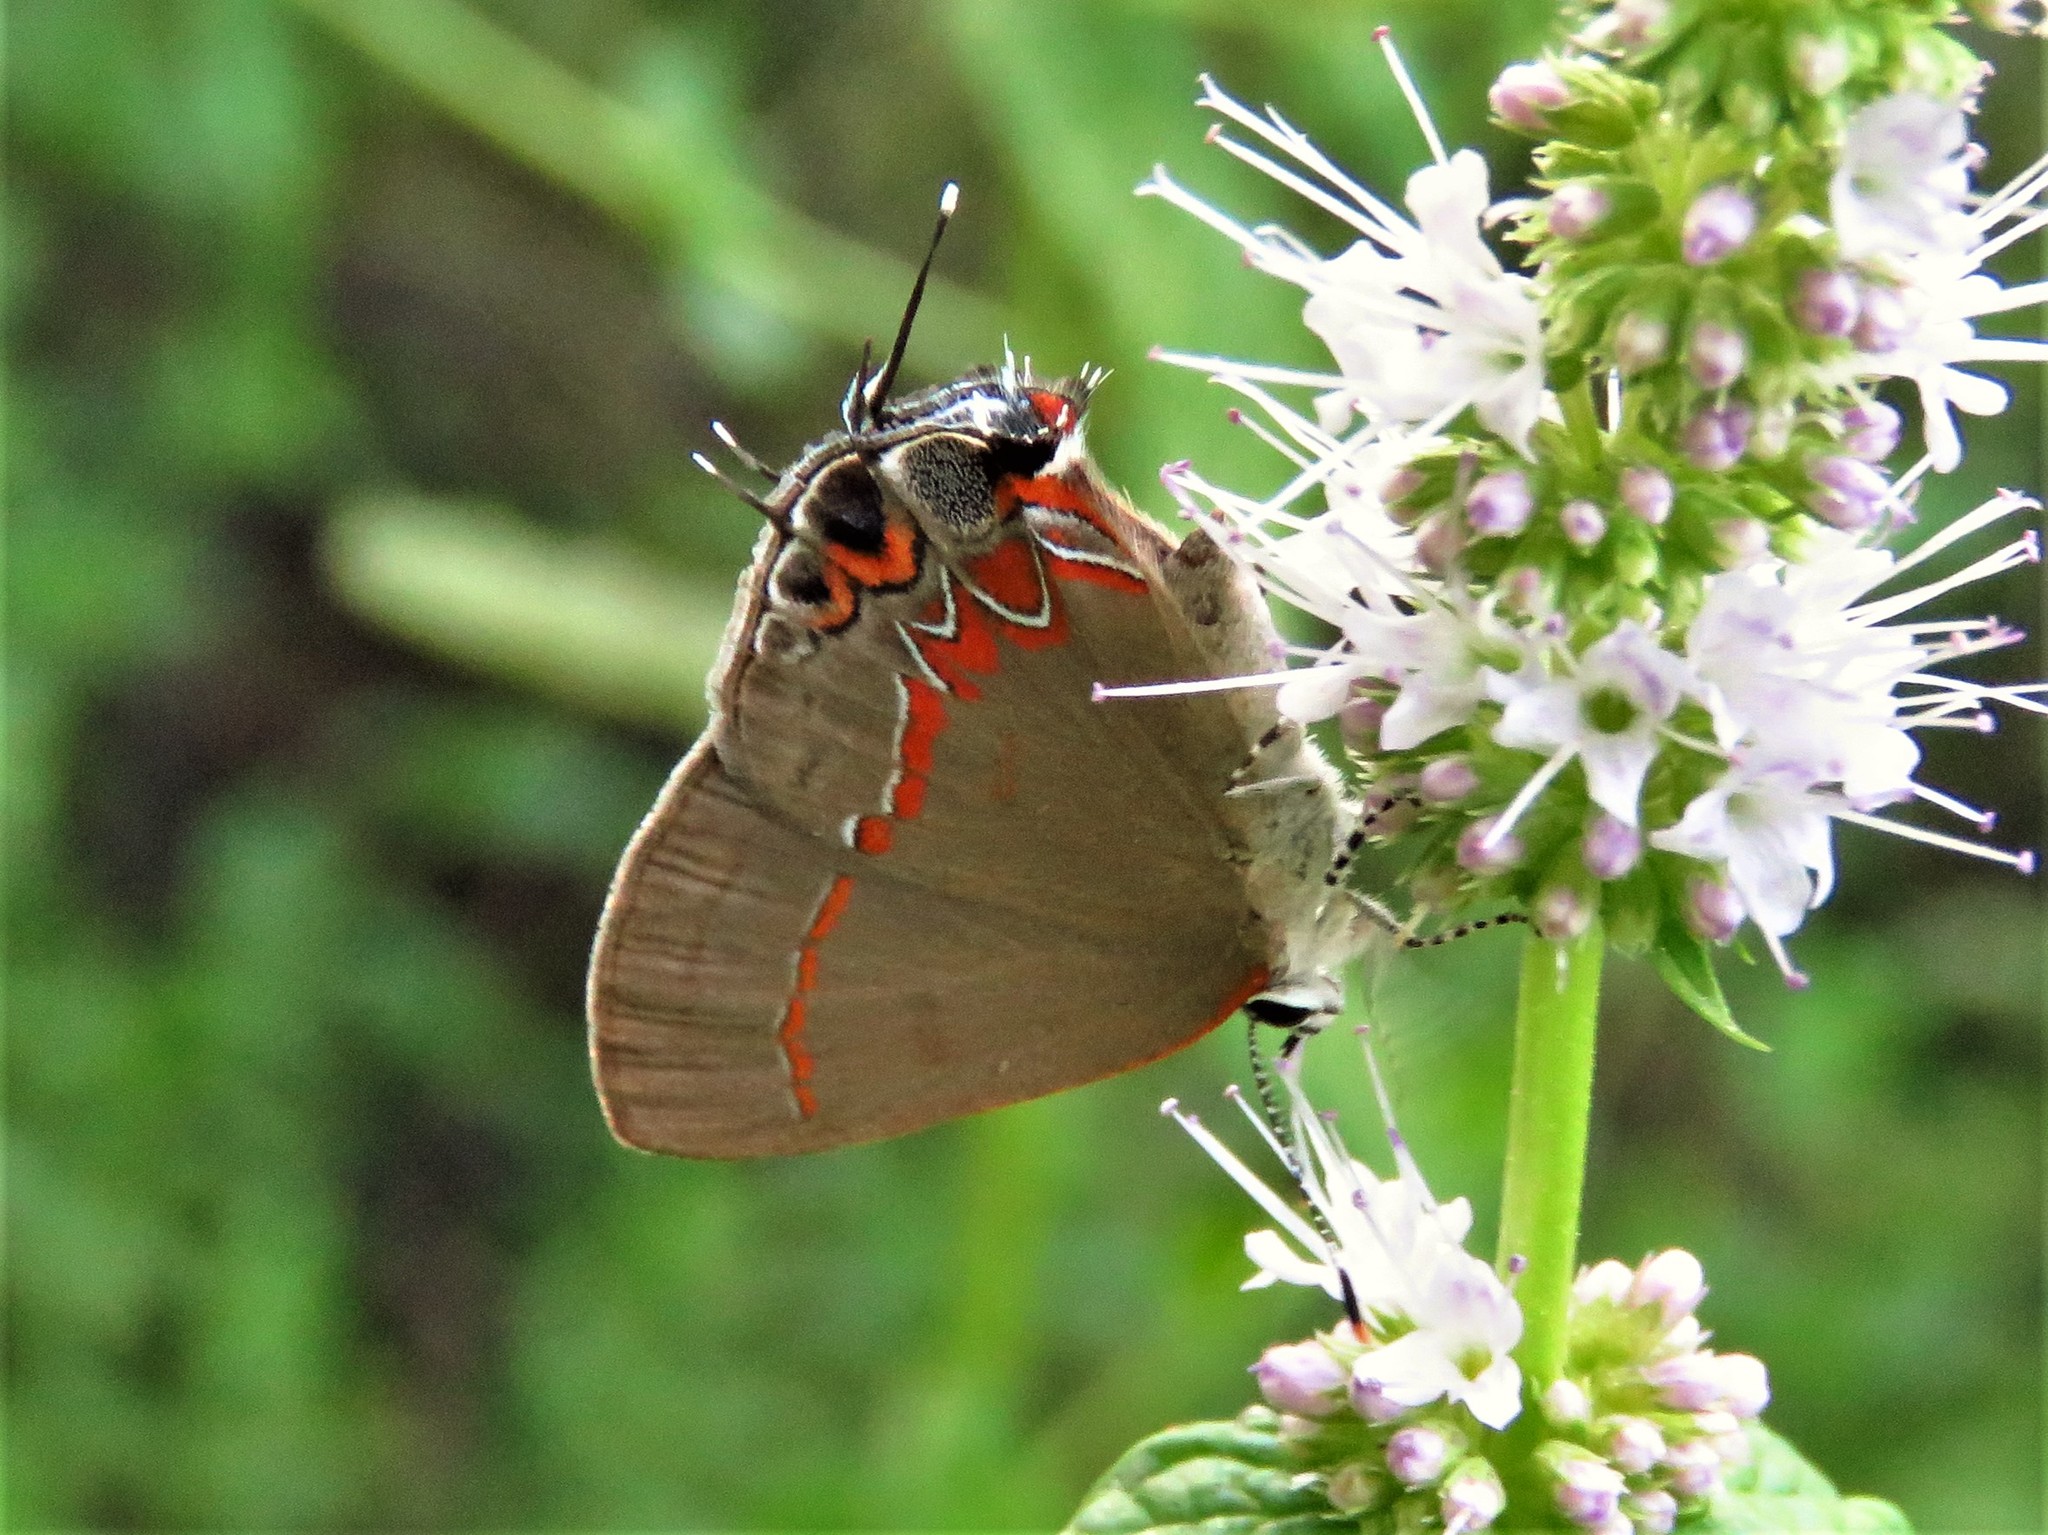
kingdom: Animalia
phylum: Arthropoda
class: Insecta
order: Lepidoptera
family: Lycaenidae
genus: Calycopis
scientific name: Calycopis isobeon
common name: Dusky-blue groundstreak
